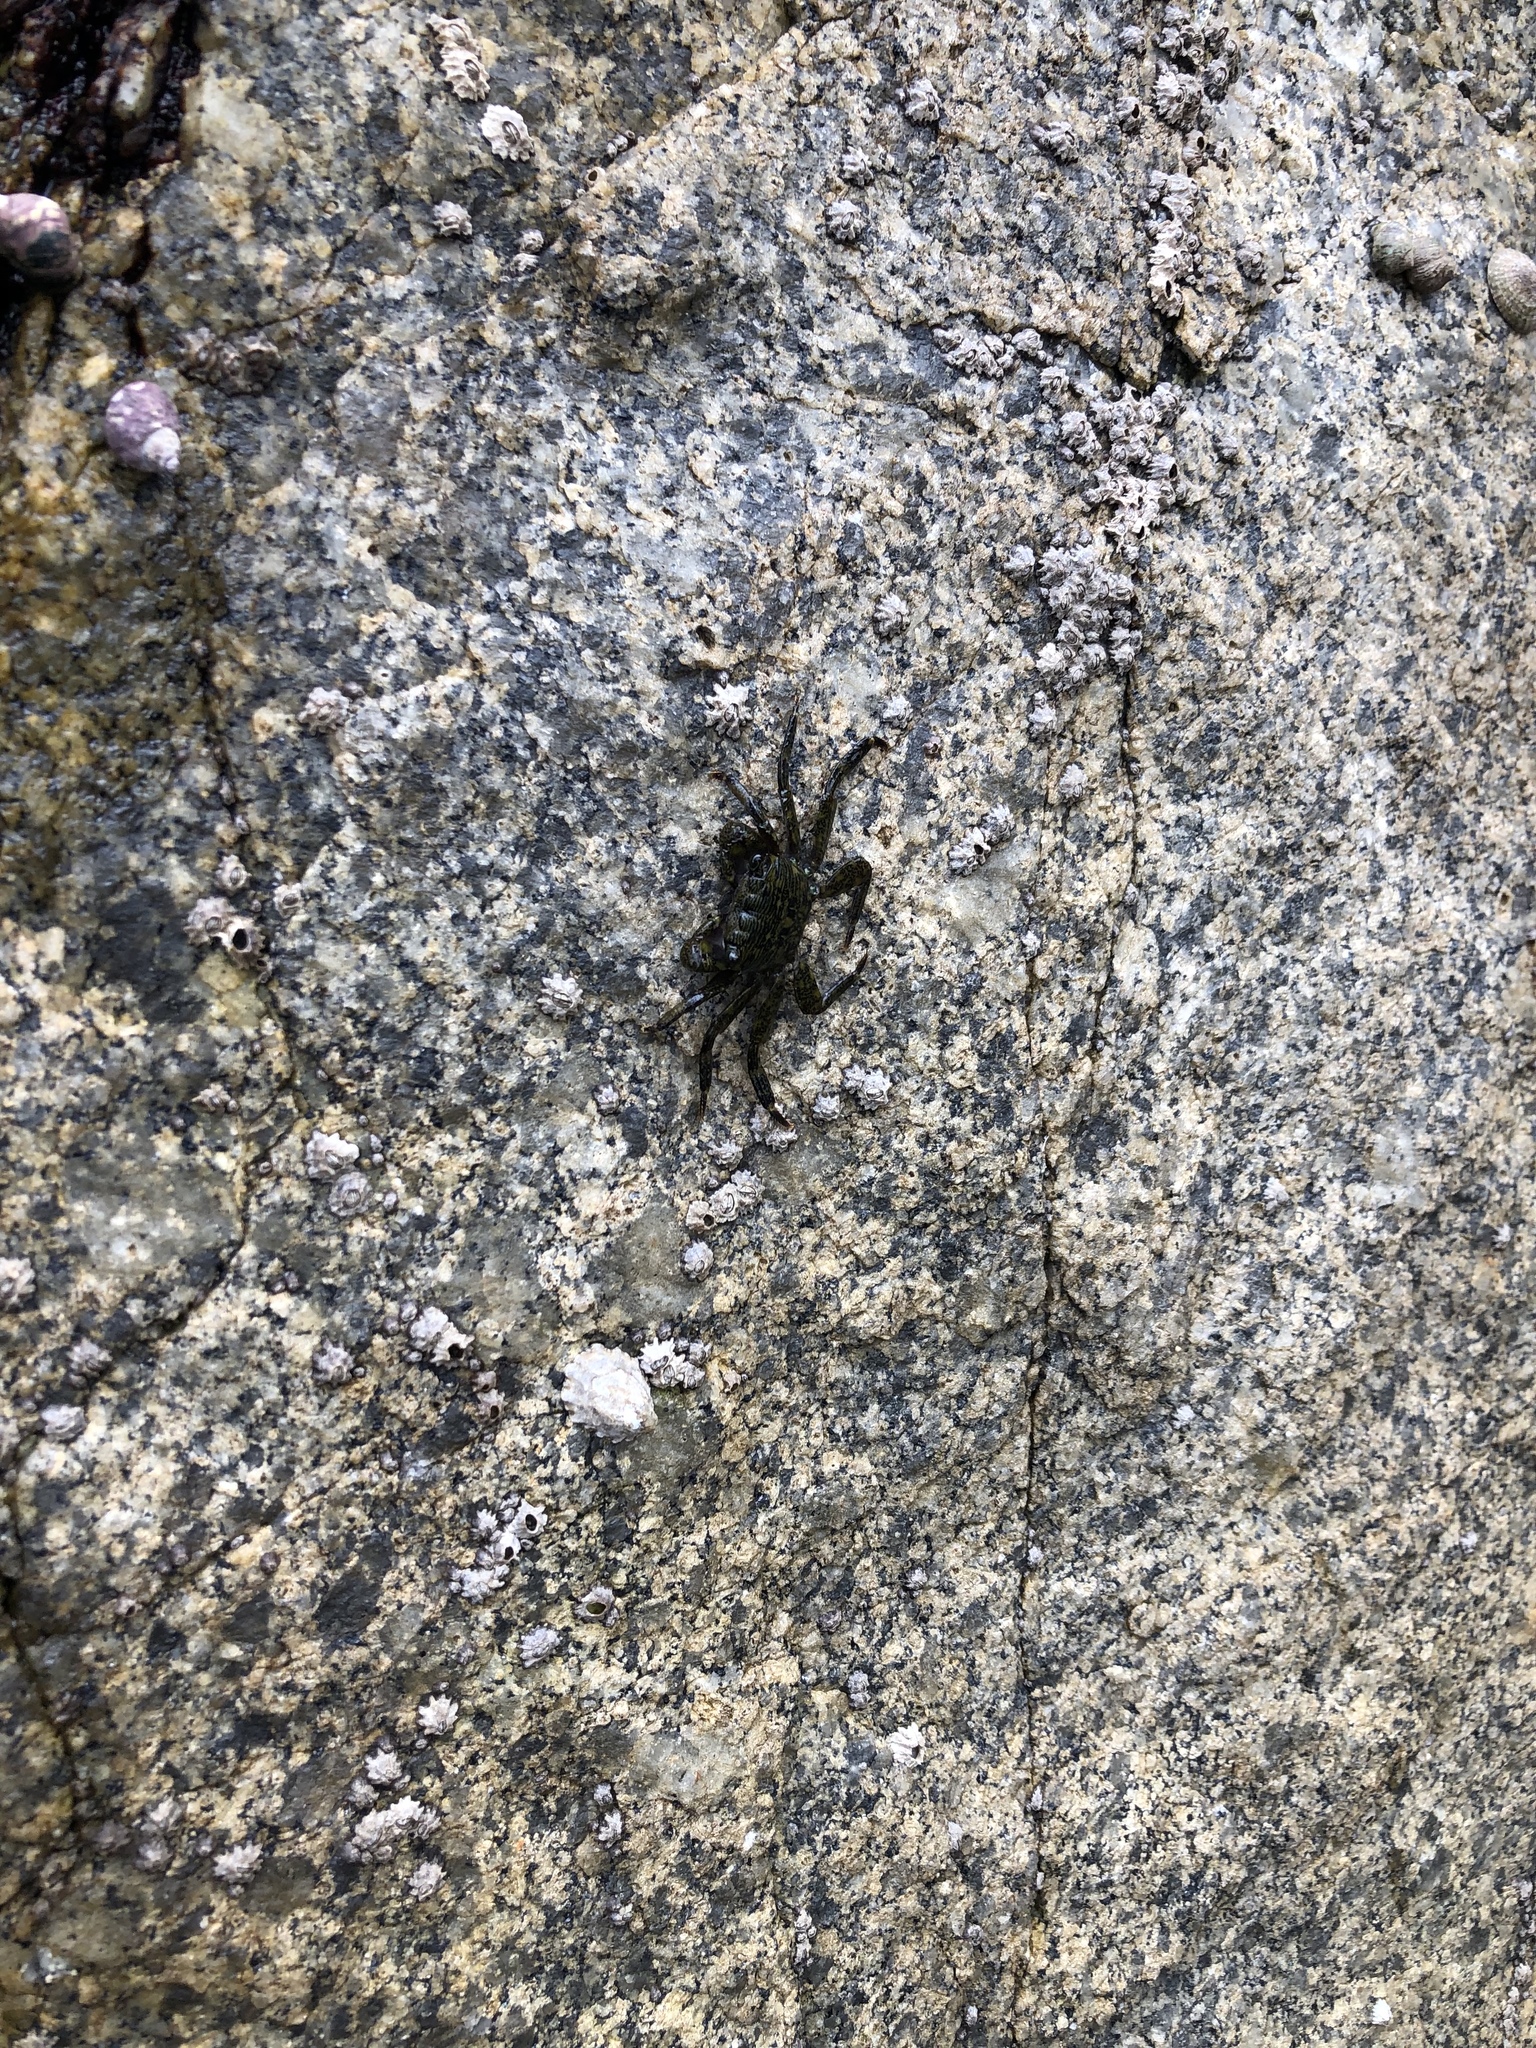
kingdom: Animalia
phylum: Arthropoda
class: Malacostraca
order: Decapoda
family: Grapsidae
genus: Pachygrapsus
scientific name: Pachygrapsus crassipes
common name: Striped shore crab
